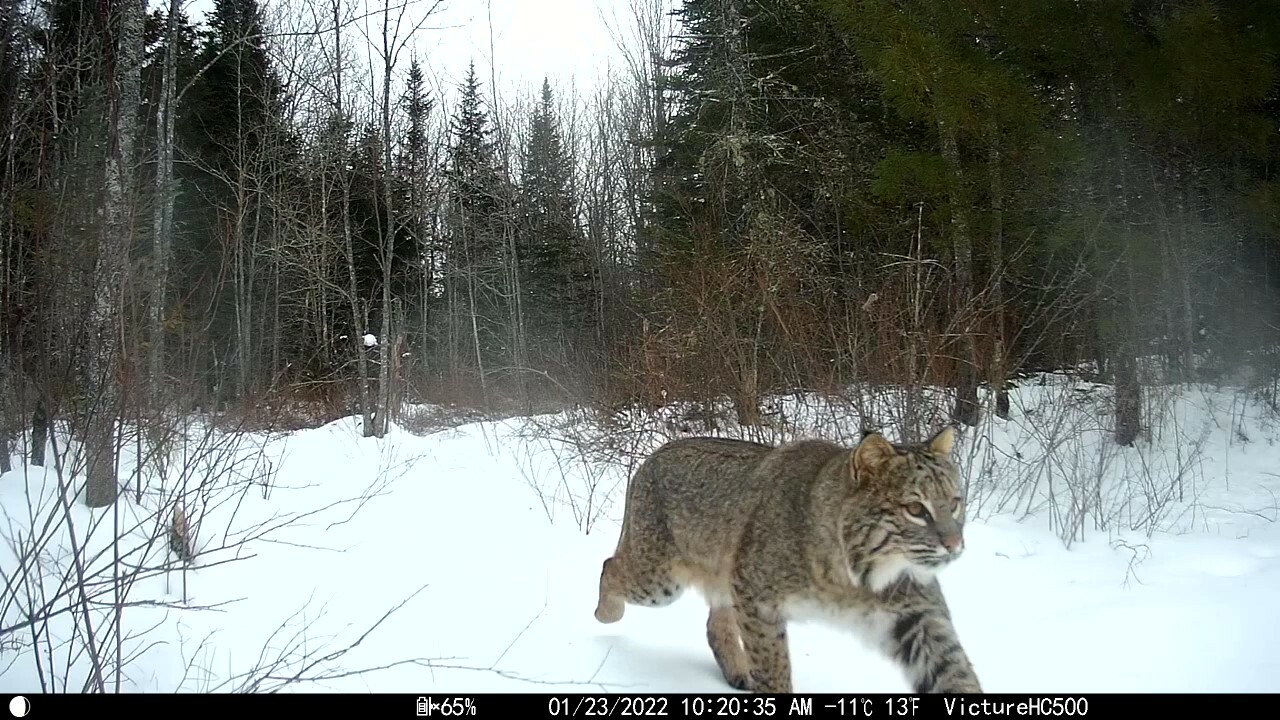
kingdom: Animalia
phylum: Chordata
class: Mammalia
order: Carnivora
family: Felidae
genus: Lynx
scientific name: Lynx rufus
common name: Bobcat
